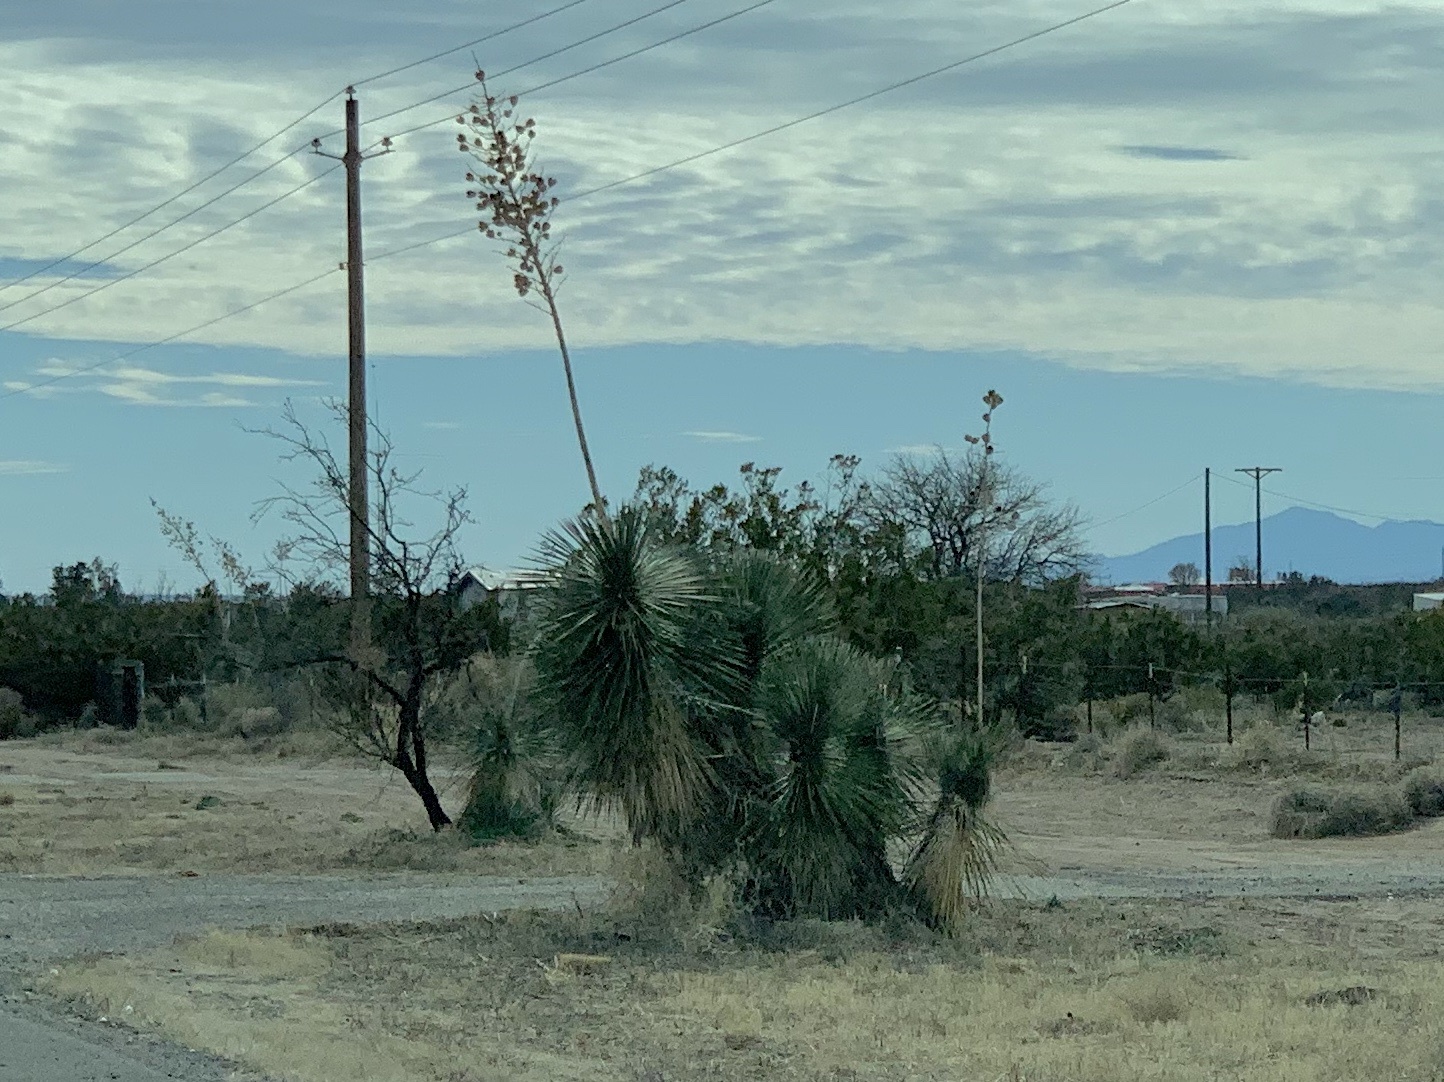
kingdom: Plantae
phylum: Tracheophyta
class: Liliopsida
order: Asparagales
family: Asparagaceae
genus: Yucca
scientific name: Yucca elata
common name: Palmella
